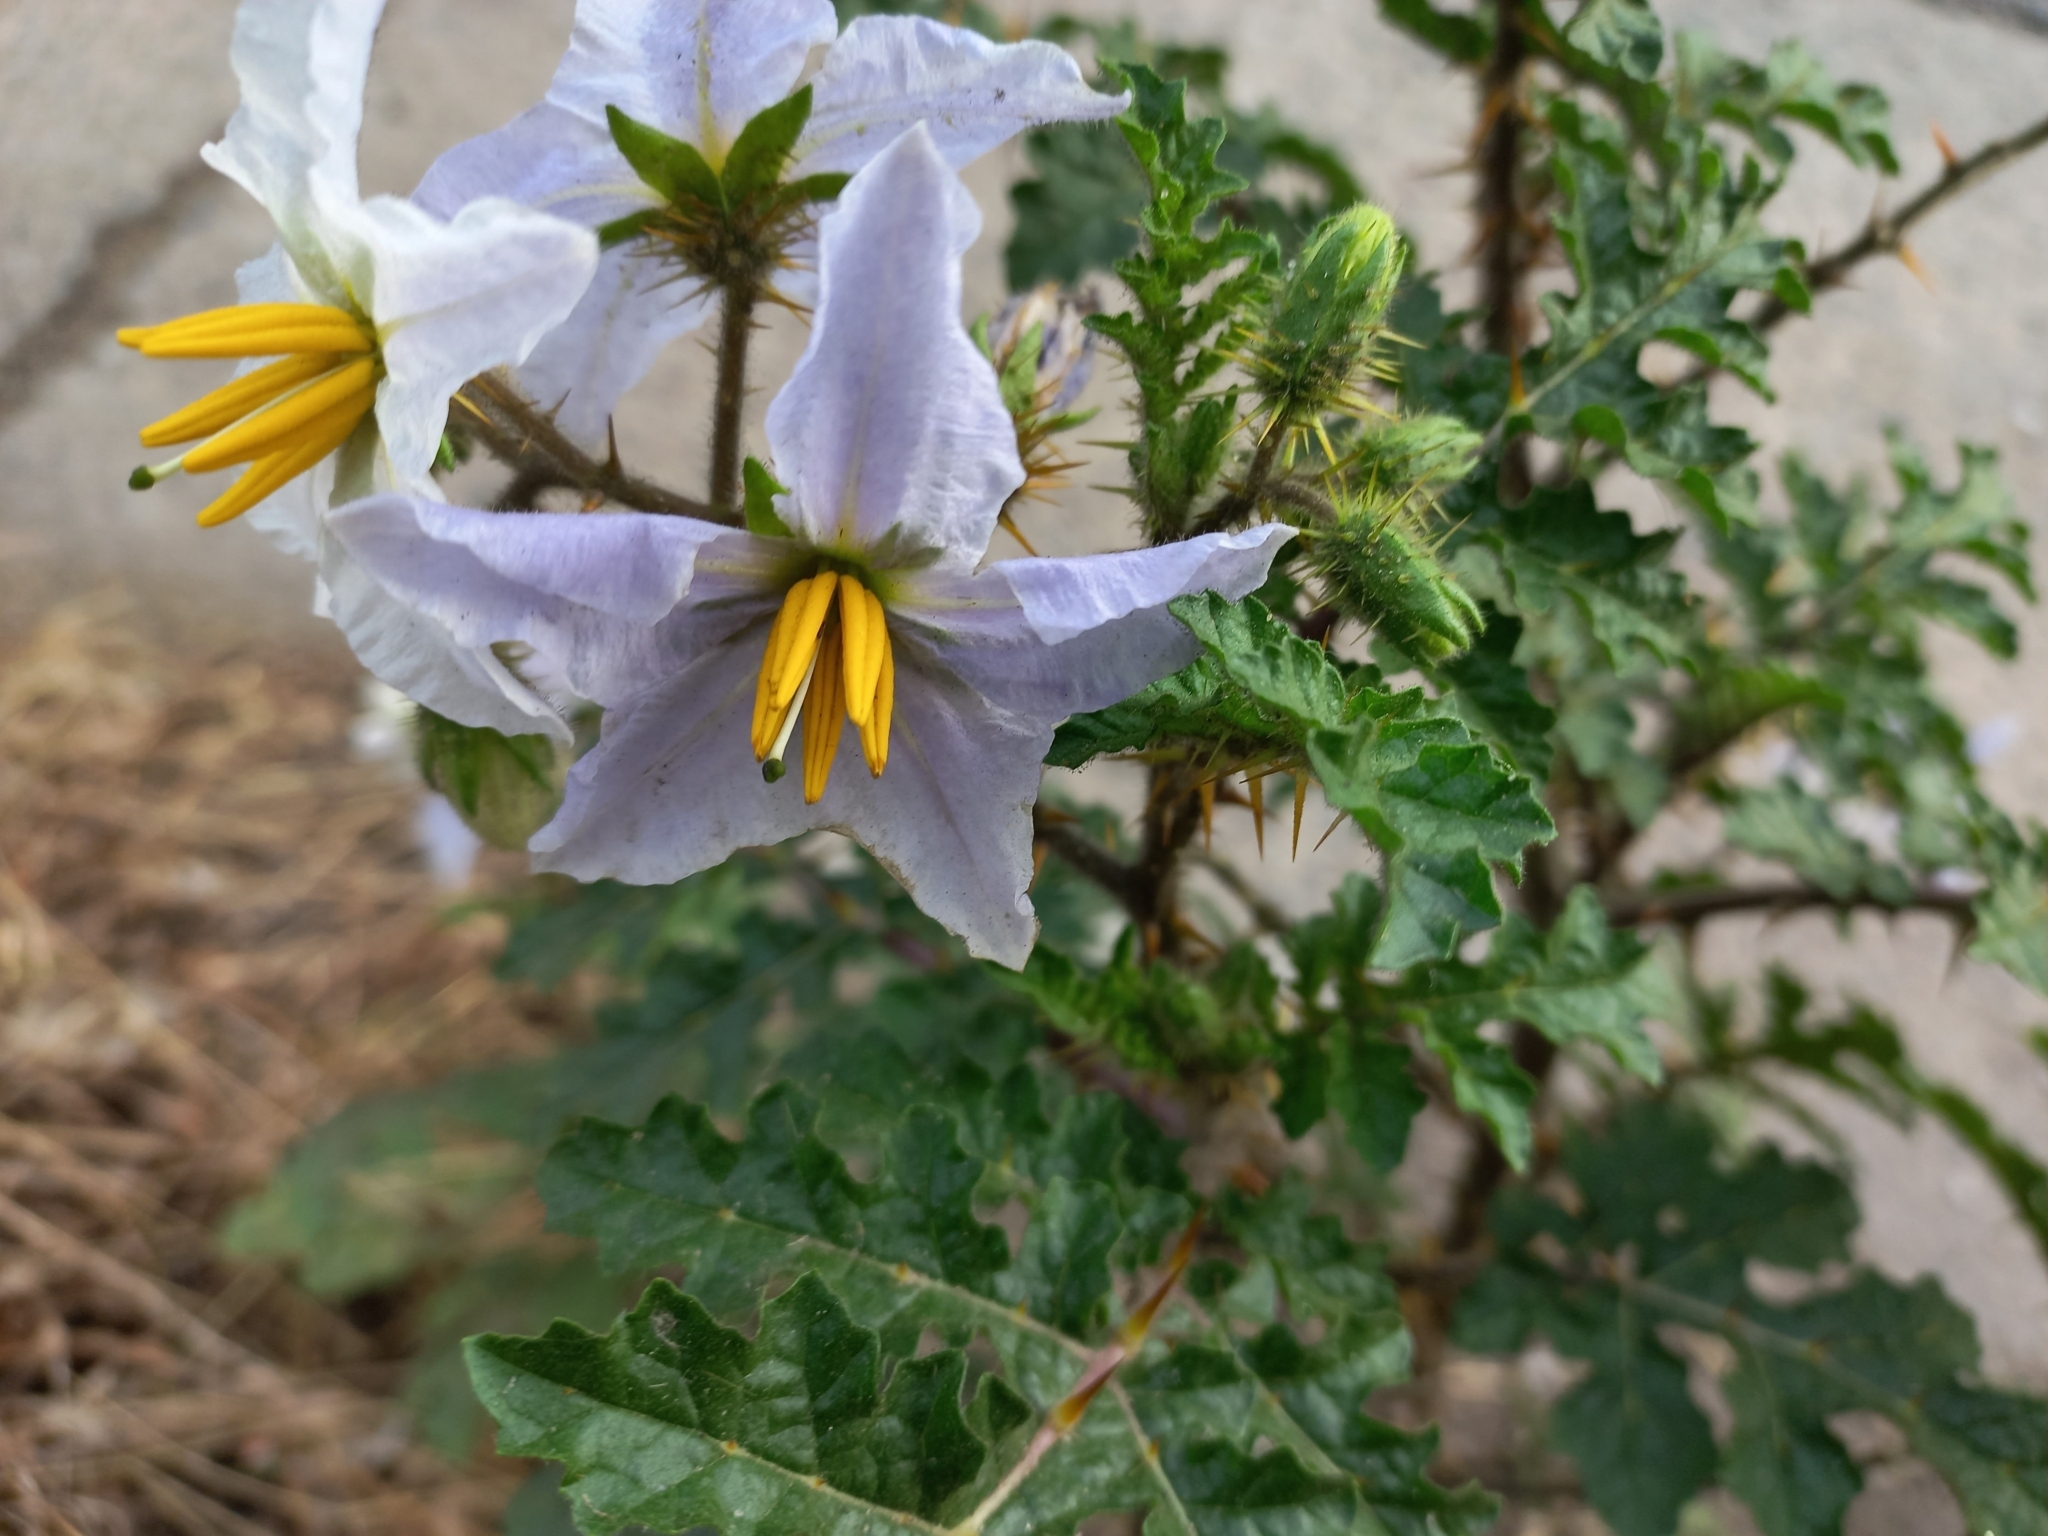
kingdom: Plantae
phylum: Tracheophyta
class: Magnoliopsida
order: Solanales
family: Solanaceae
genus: Solanum
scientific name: Solanum sisymbriifolium
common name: Red buffalo-bur
